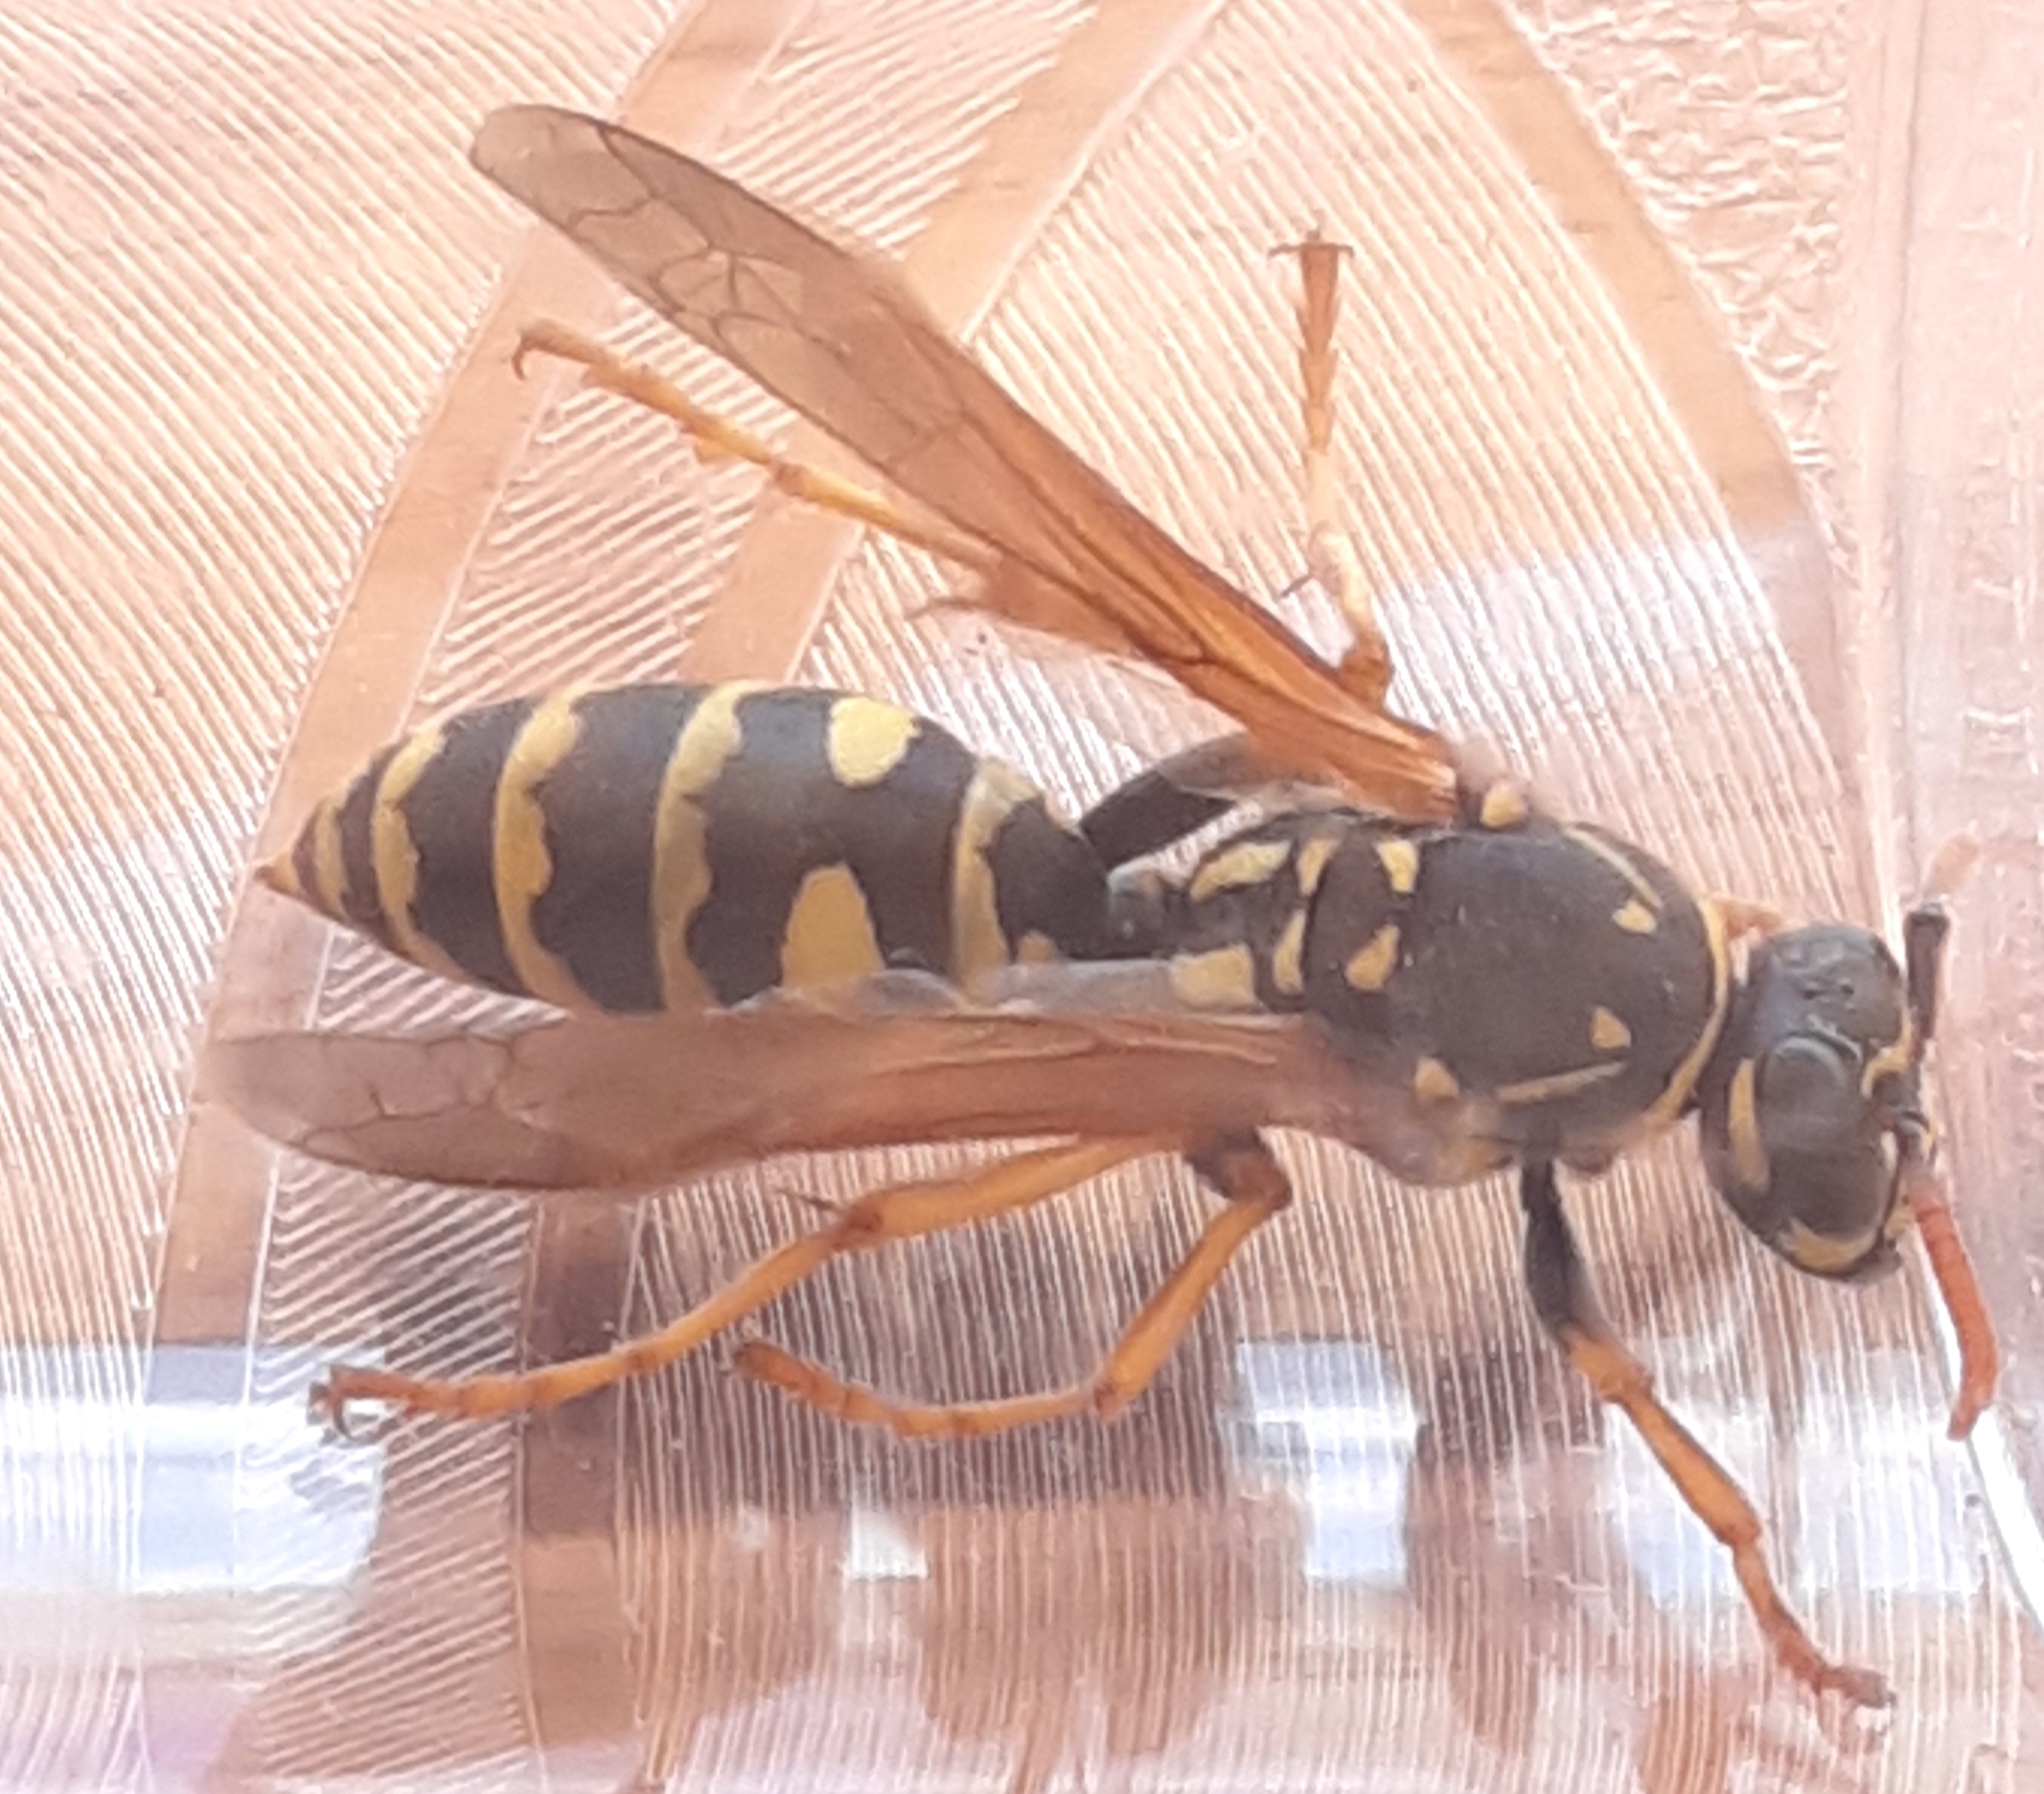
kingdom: Animalia
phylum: Arthropoda
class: Insecta
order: Hymenoptera
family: Eumenidae
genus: Polistes
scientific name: Polistes dominula
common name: Paper wasp
